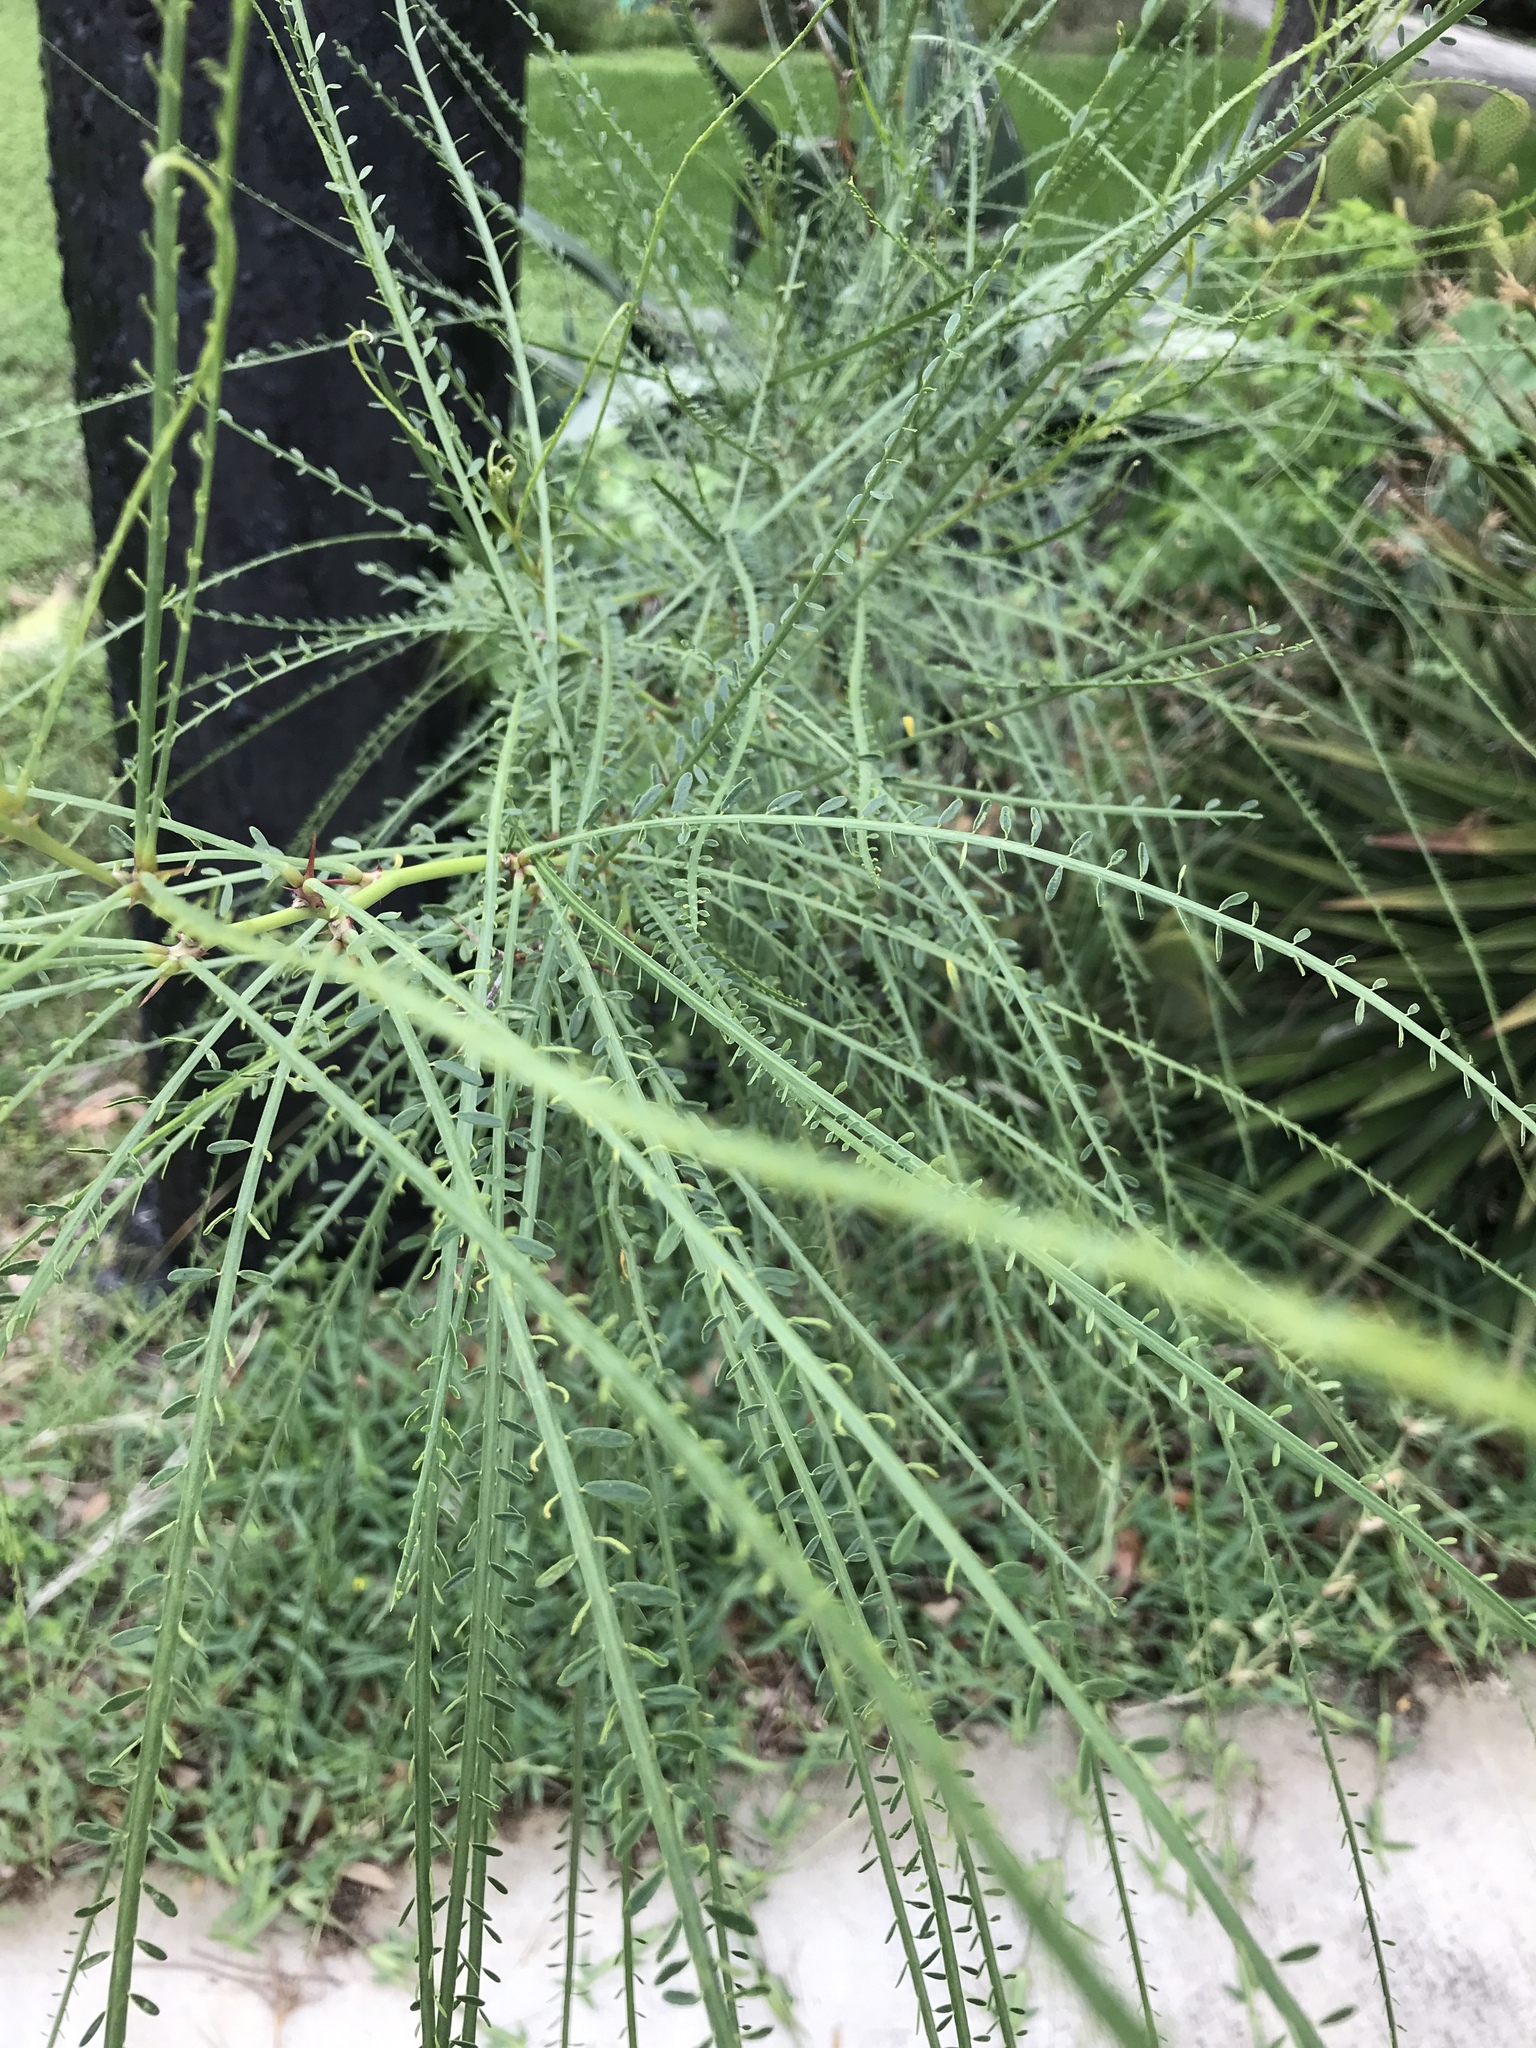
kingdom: Plantae
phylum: Tracheophyta
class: Magnoliopsida
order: Fabales
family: Fabaceae
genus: Parkinsonia
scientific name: Parkinsonia aculeata
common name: Jerusalem thorn
